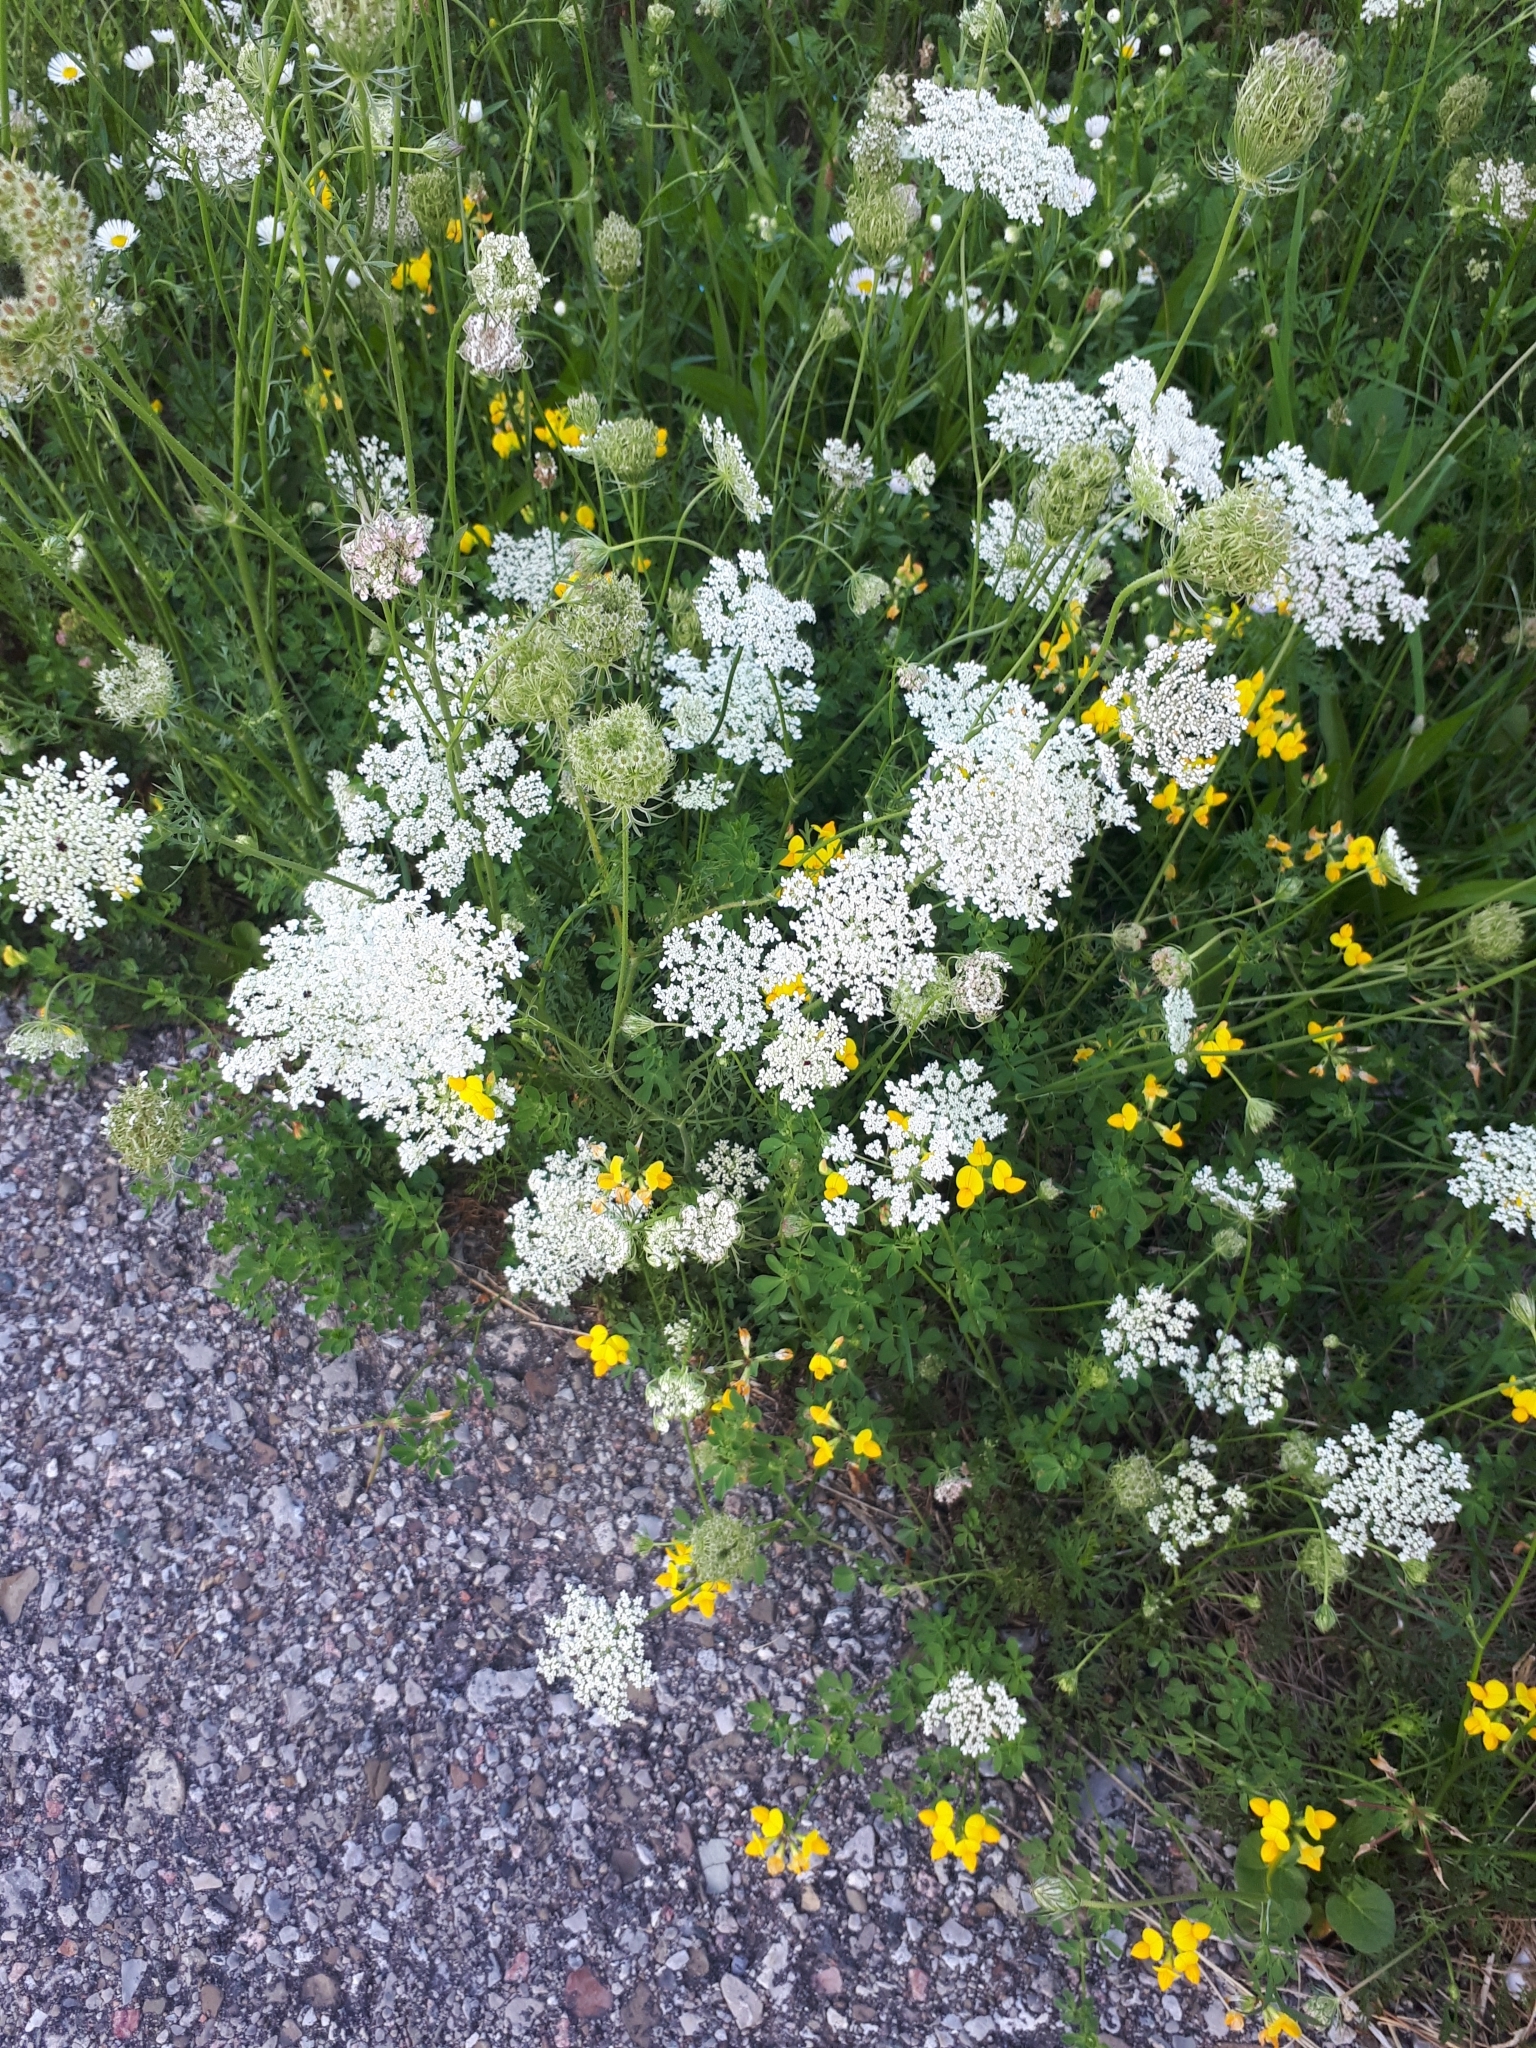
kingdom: Plantae
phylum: Tracheophyta
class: Magnoliopsida
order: Apiales
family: Apiaceae
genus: Daucus
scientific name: Daucus carota
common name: Wild carrot
